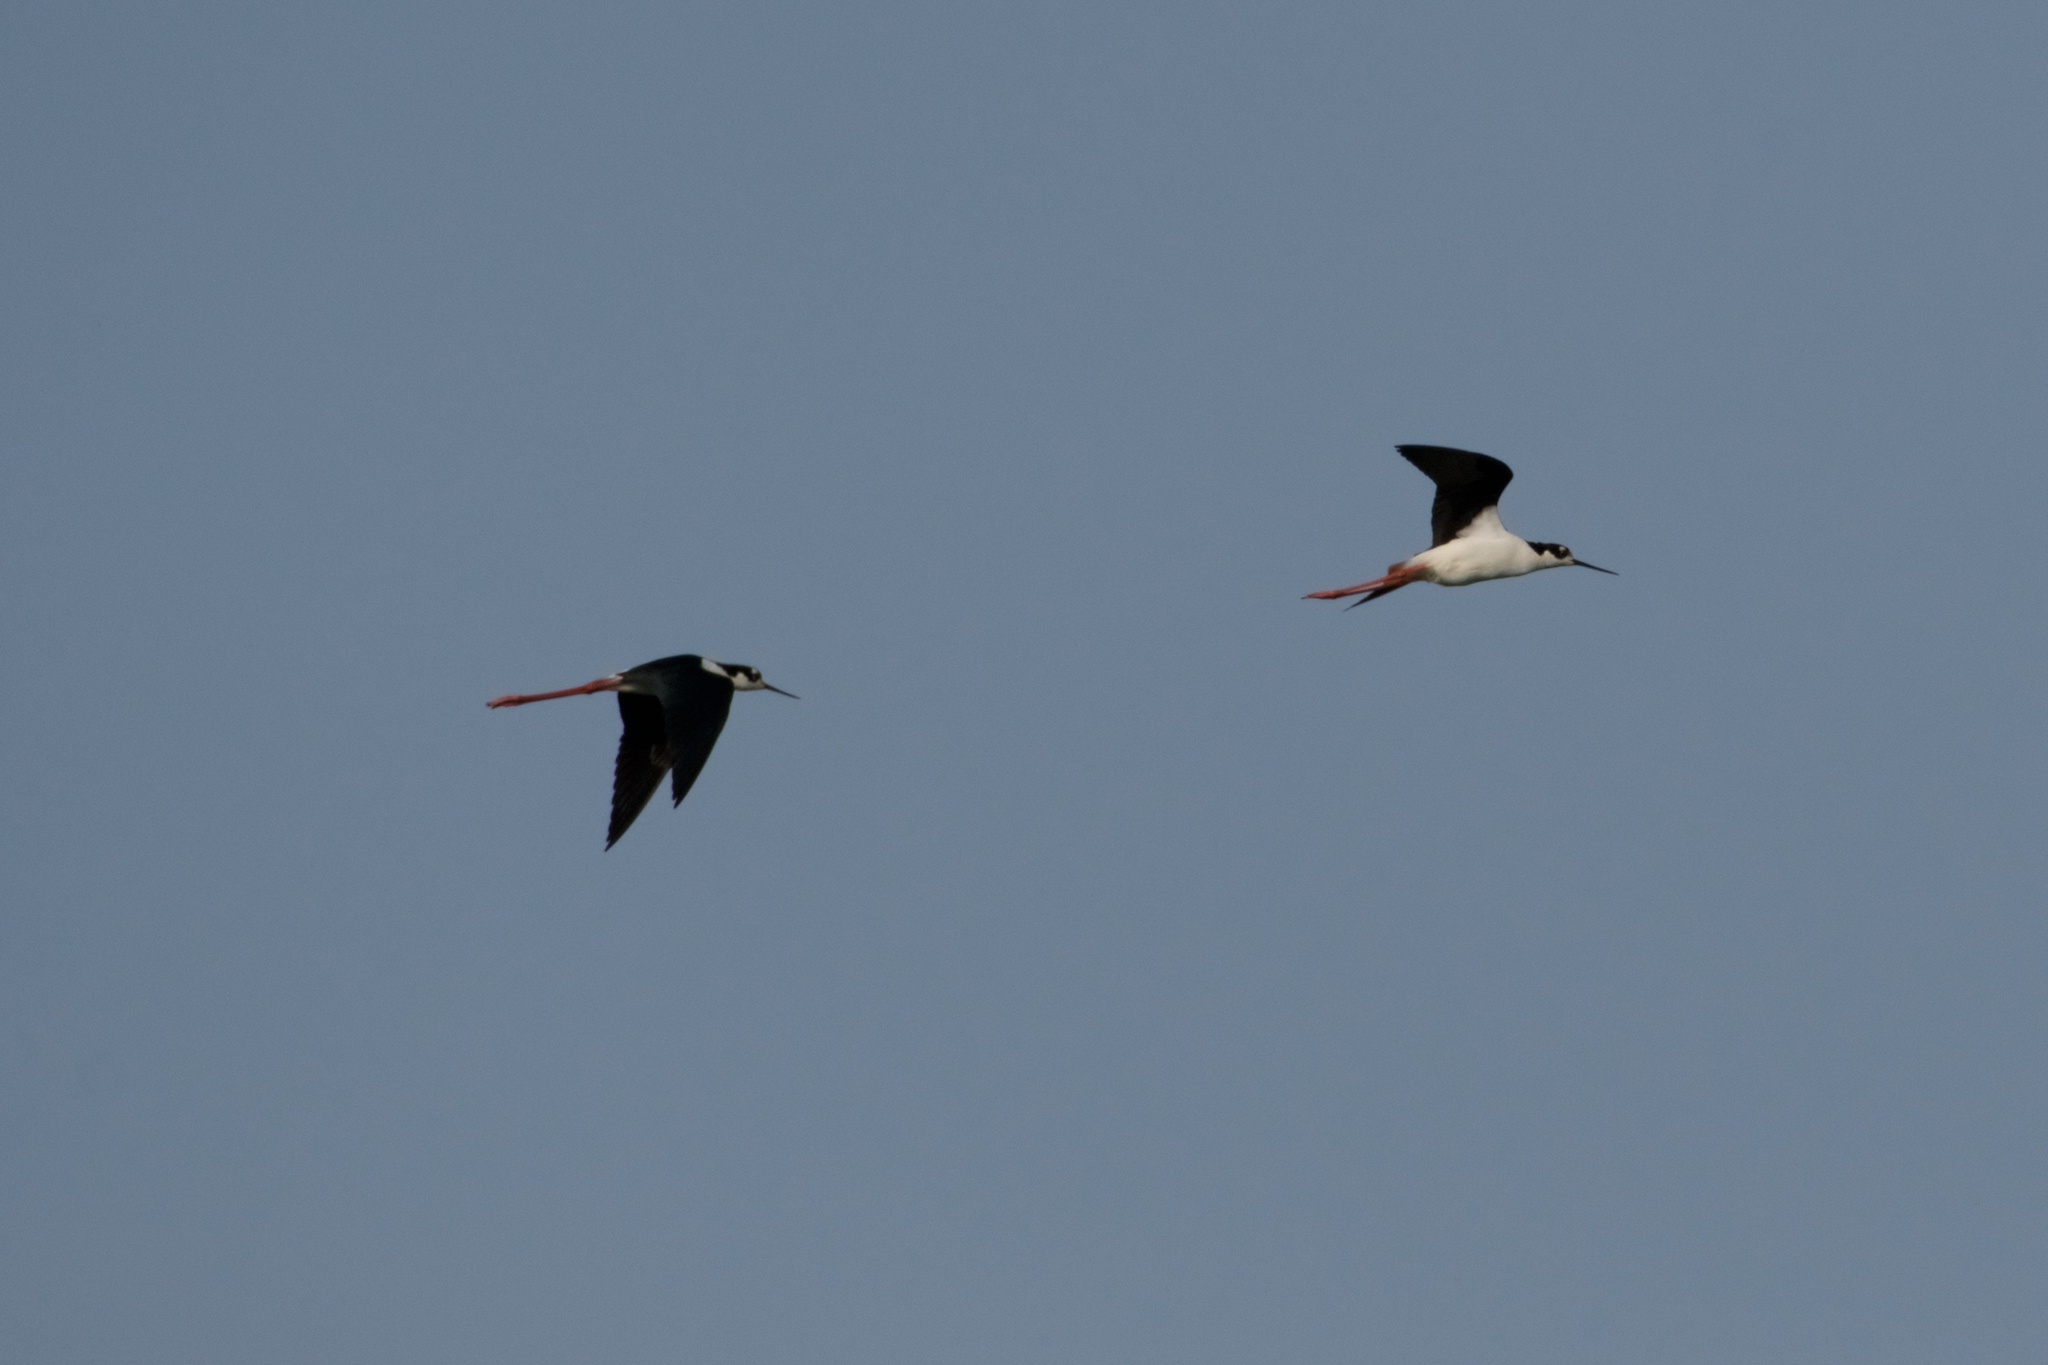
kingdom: Animalia
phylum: Chordata
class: Aves
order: Charadriiformes
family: Recurvirostridae
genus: Himantopus
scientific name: Himantopus mexicanus
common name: Black-necked stilt
